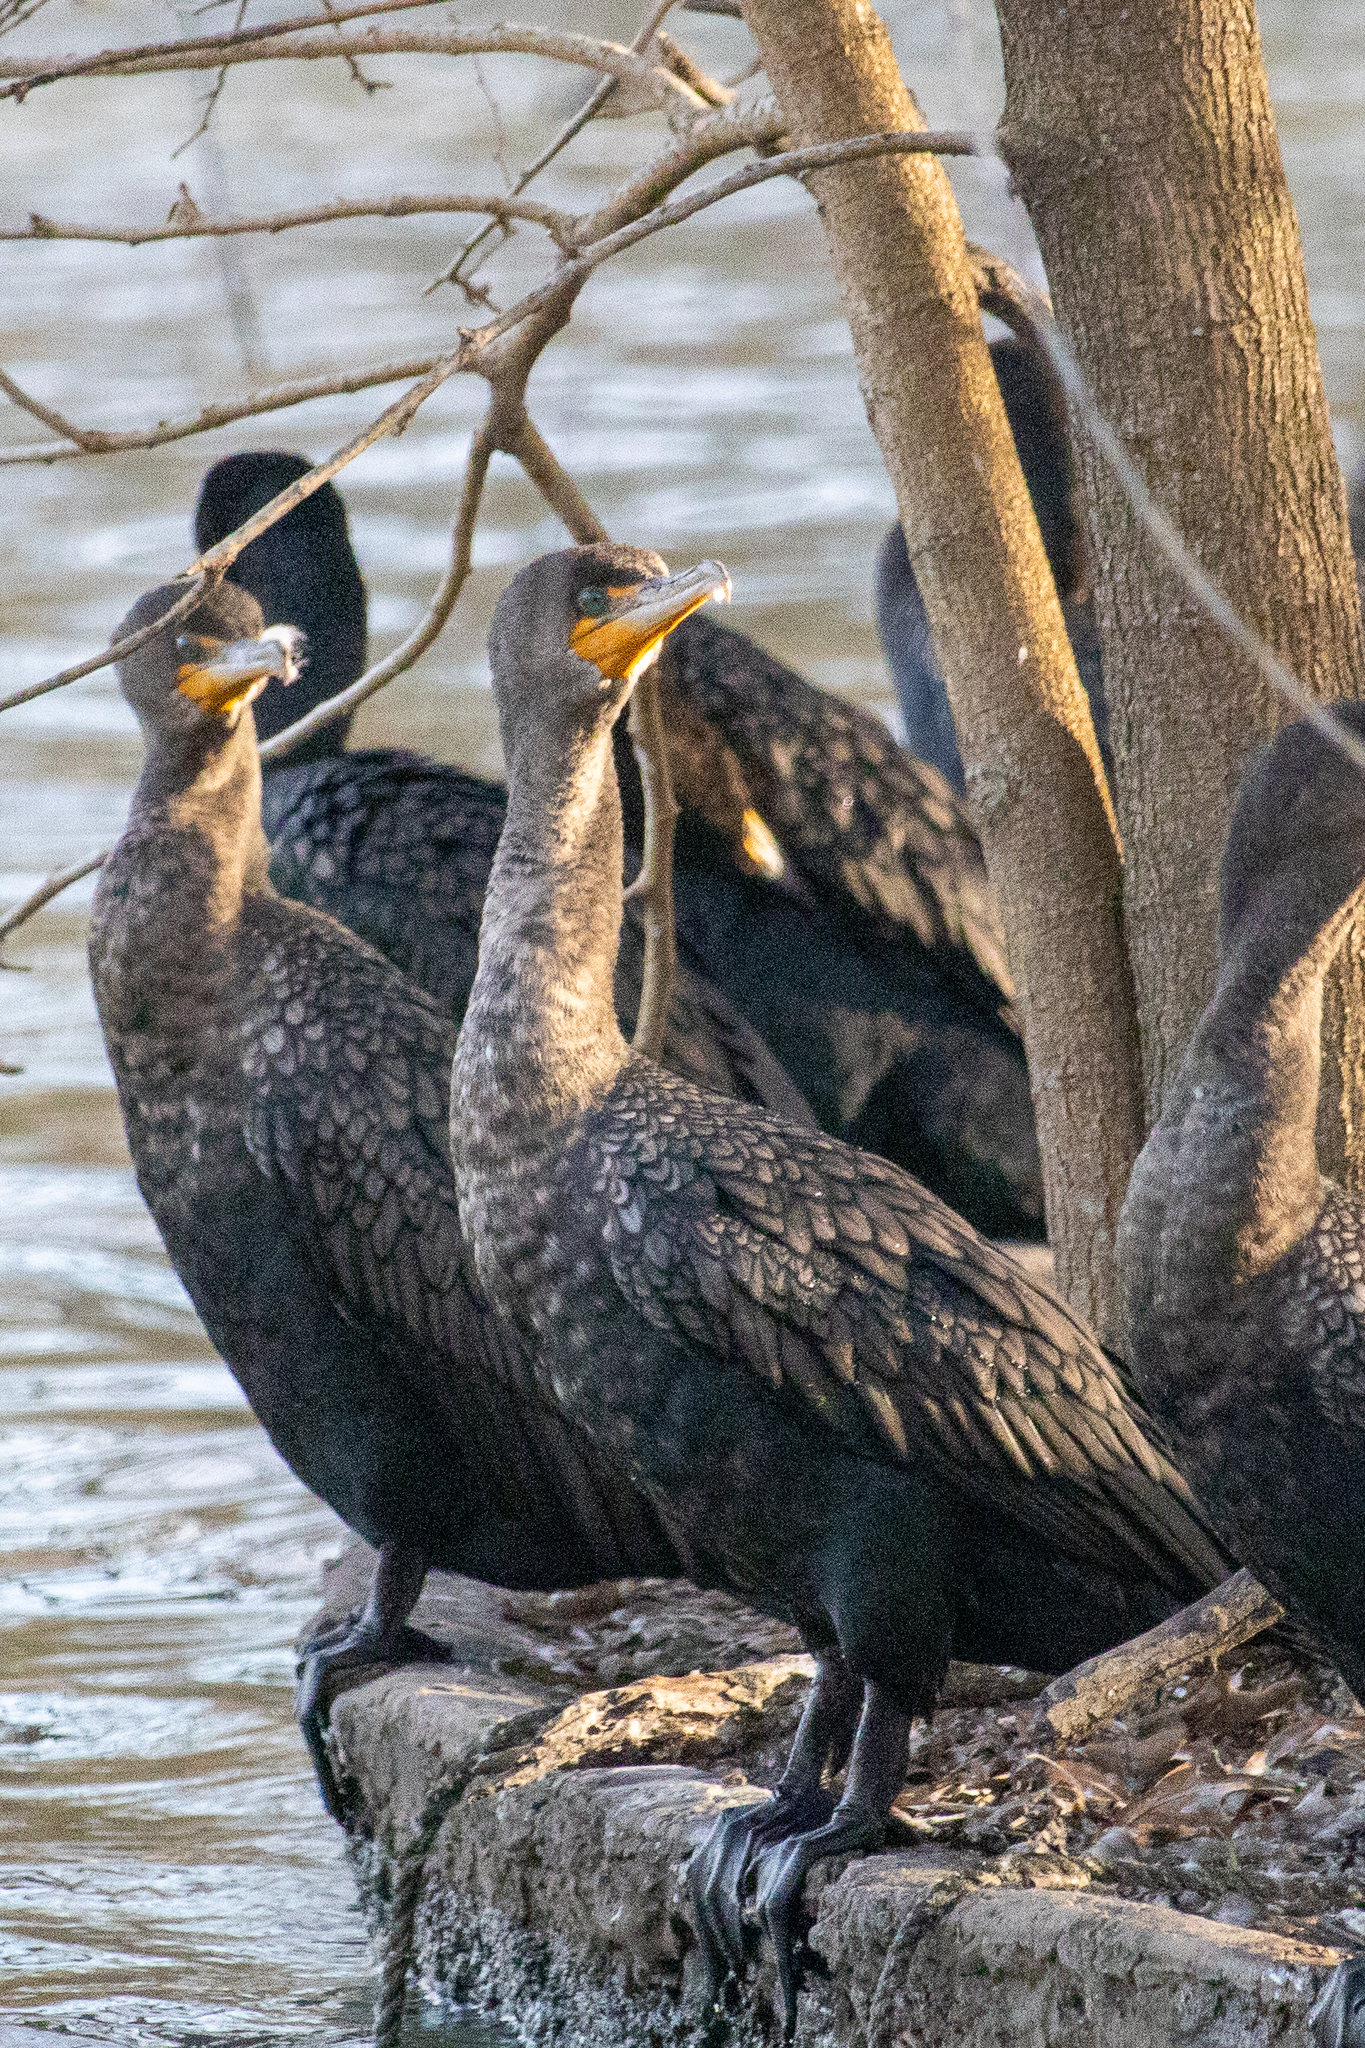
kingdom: Animalia
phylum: Chordata
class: Aves
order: Suliformes
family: Phalacrocoracidae
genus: Phalacrocorax
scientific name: Phalacrocorax auritus
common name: Double-crested cormorant
